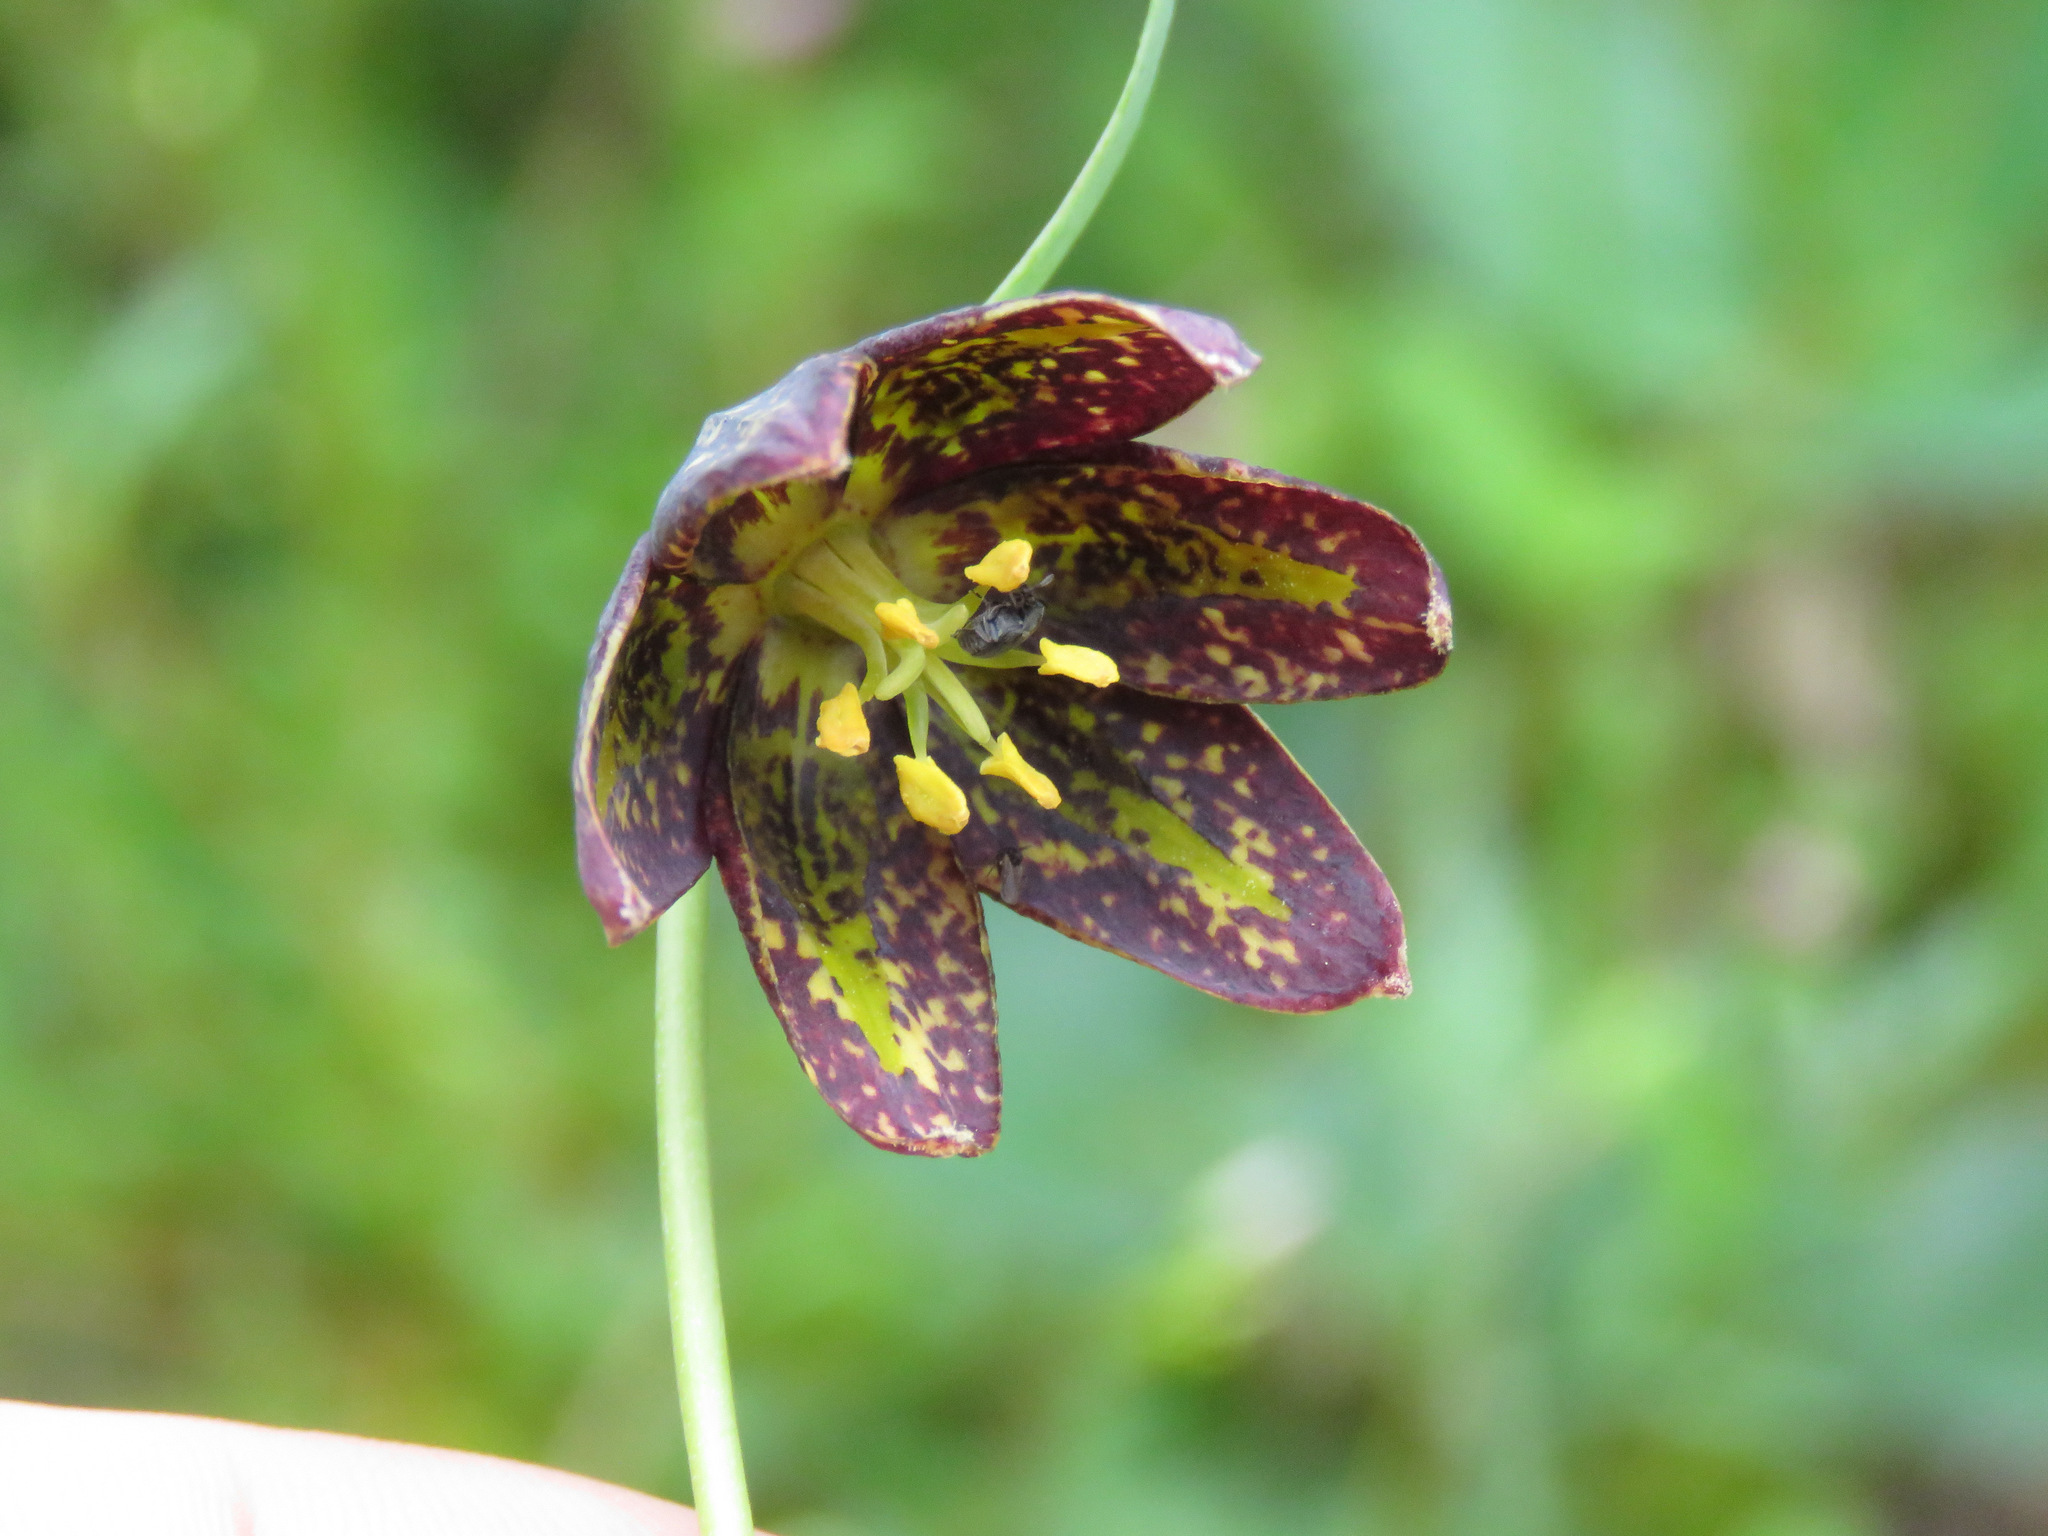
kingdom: Plantae
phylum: Tracheophyta
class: Liliopsida
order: Liliales
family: Liliaceae
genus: Fritillaria
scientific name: Fritillaria affinis
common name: Ojai fritillary
